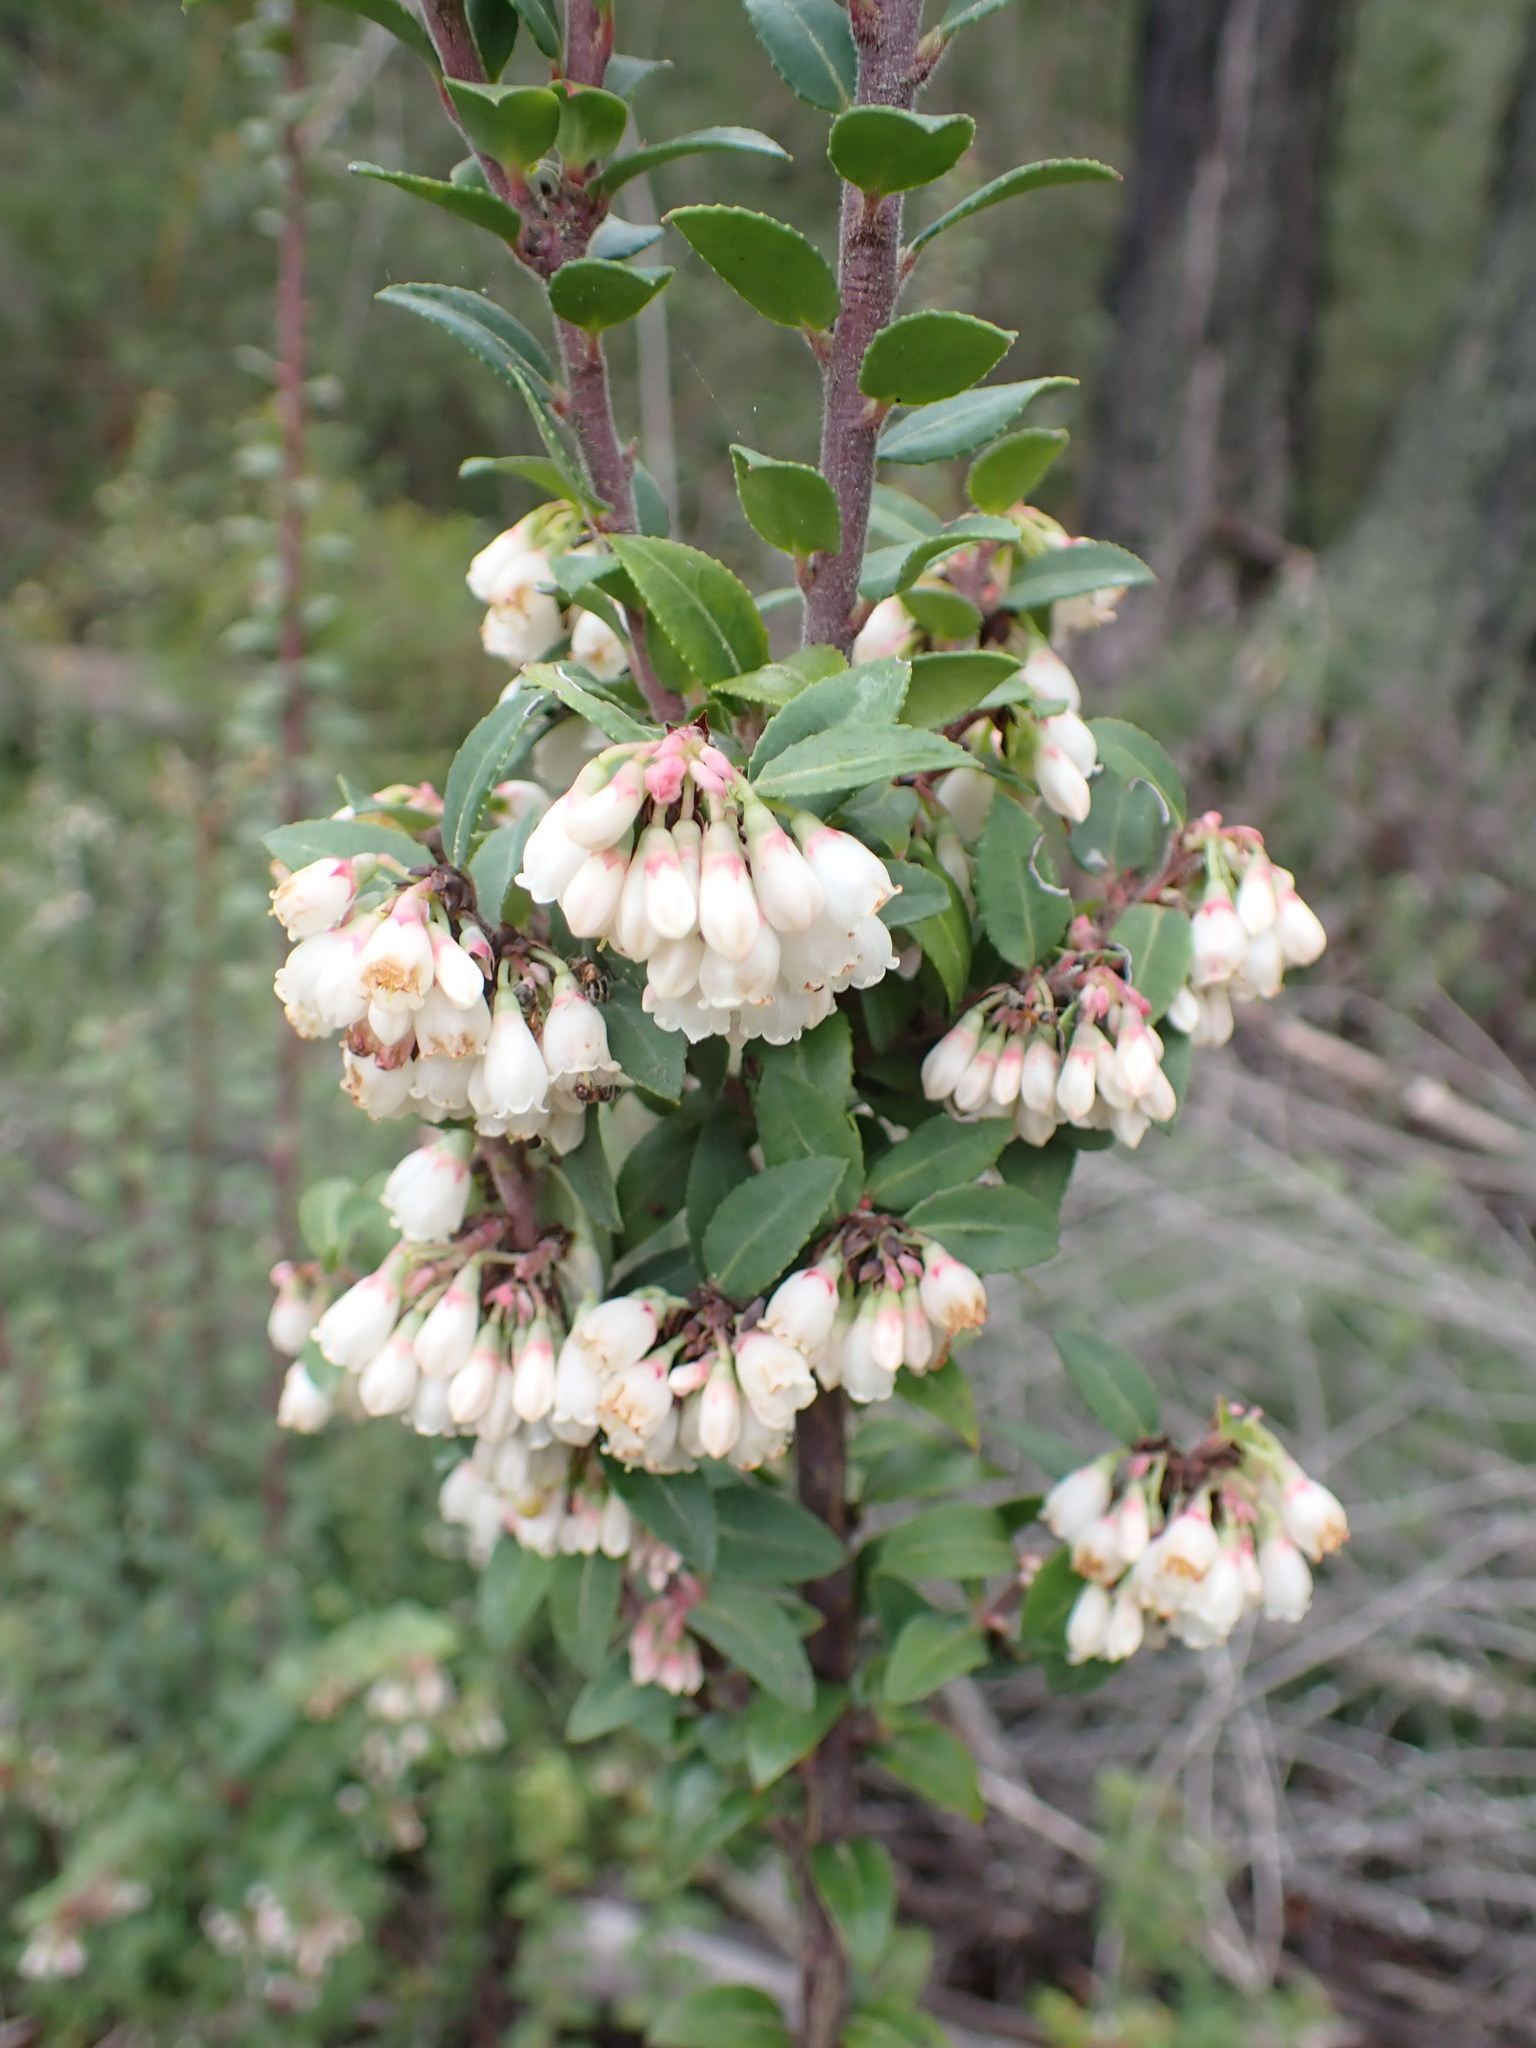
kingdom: Plantae
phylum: Tracheophyta
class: Magnoliopsida
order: Ericales
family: Ericaceae
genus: Vaccinium
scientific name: Vaccinium ovatum
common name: California-huckleberry
